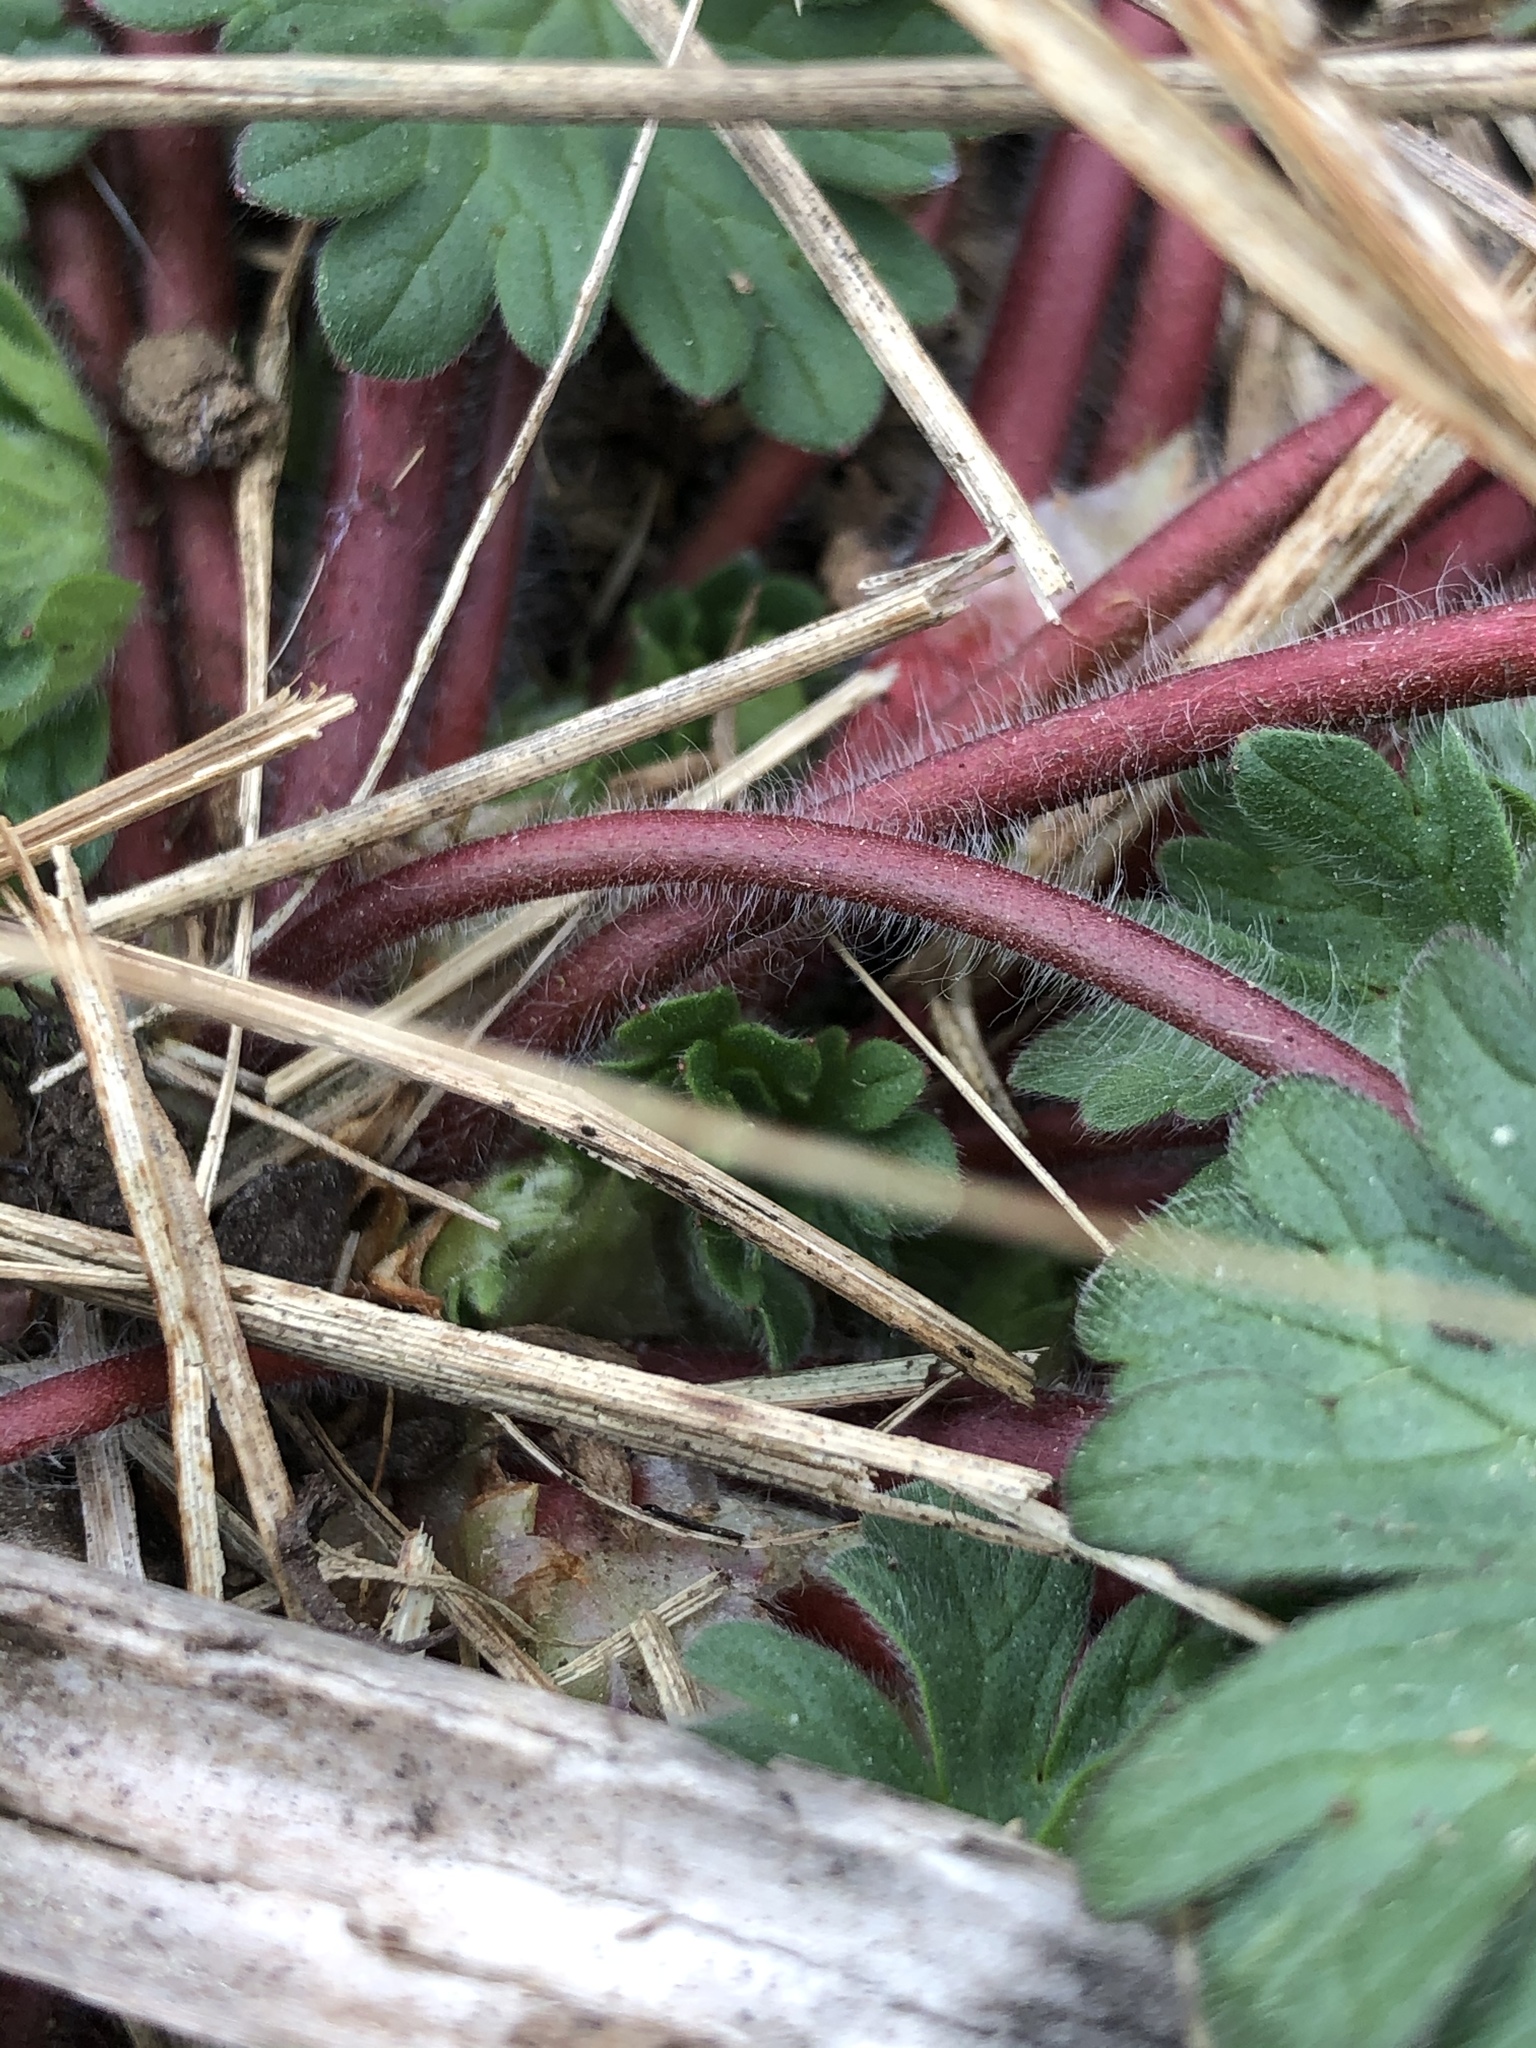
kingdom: Plantae
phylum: Tracheophyta
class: Magnoliopsida
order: Geraniales
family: Geraniaceae
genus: Geranium
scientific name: Geranium molle
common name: Dove's-foot crane's-bill
